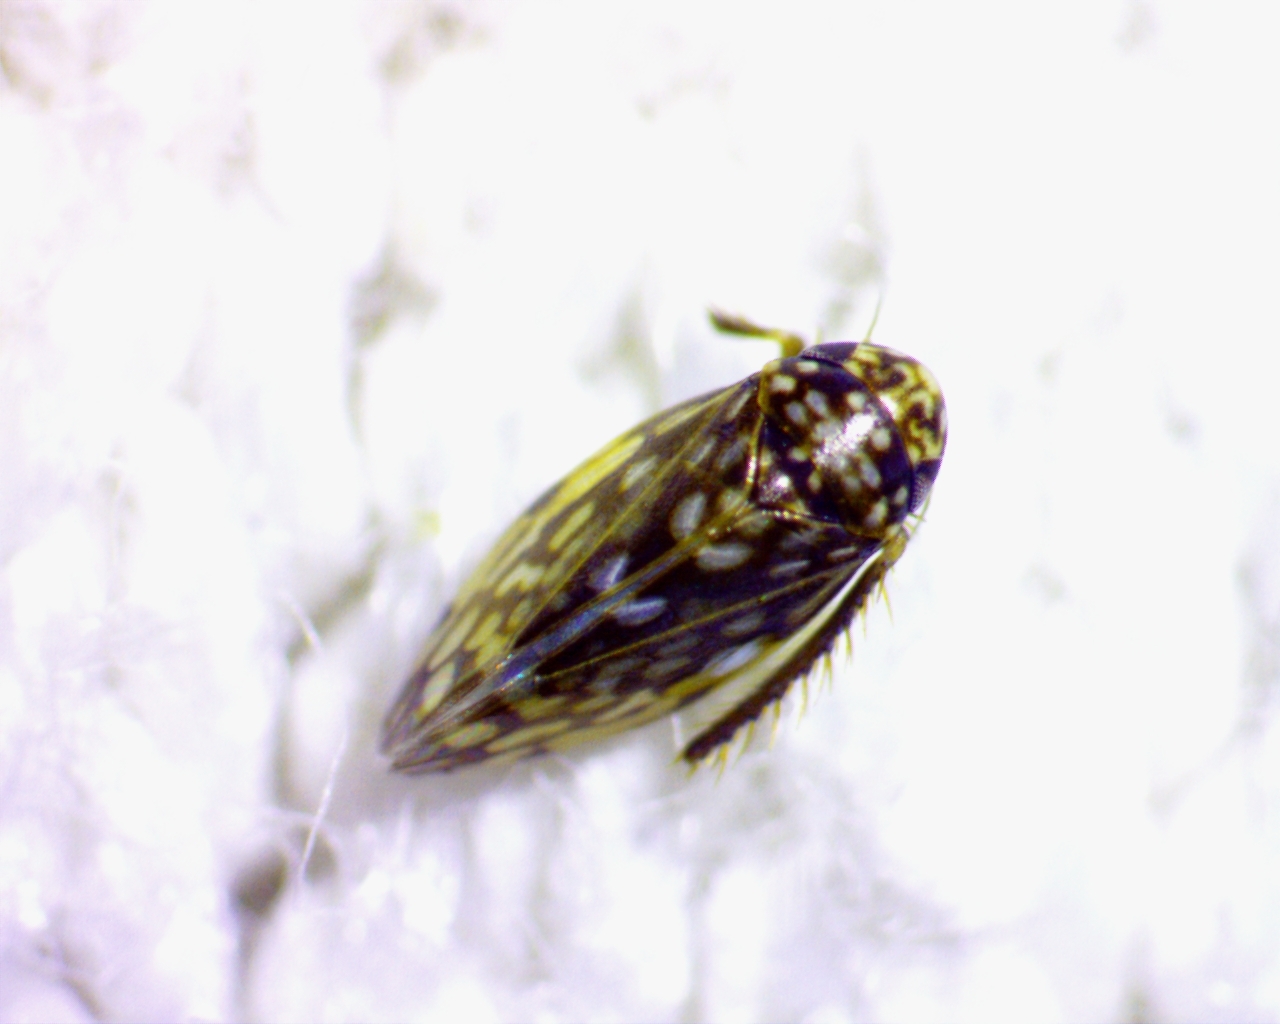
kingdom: Animalia
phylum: Arthropoda
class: Insecta
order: Hemiptera
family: Cicadellidae
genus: Xestocephalus
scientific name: Xestocephalus superbus
